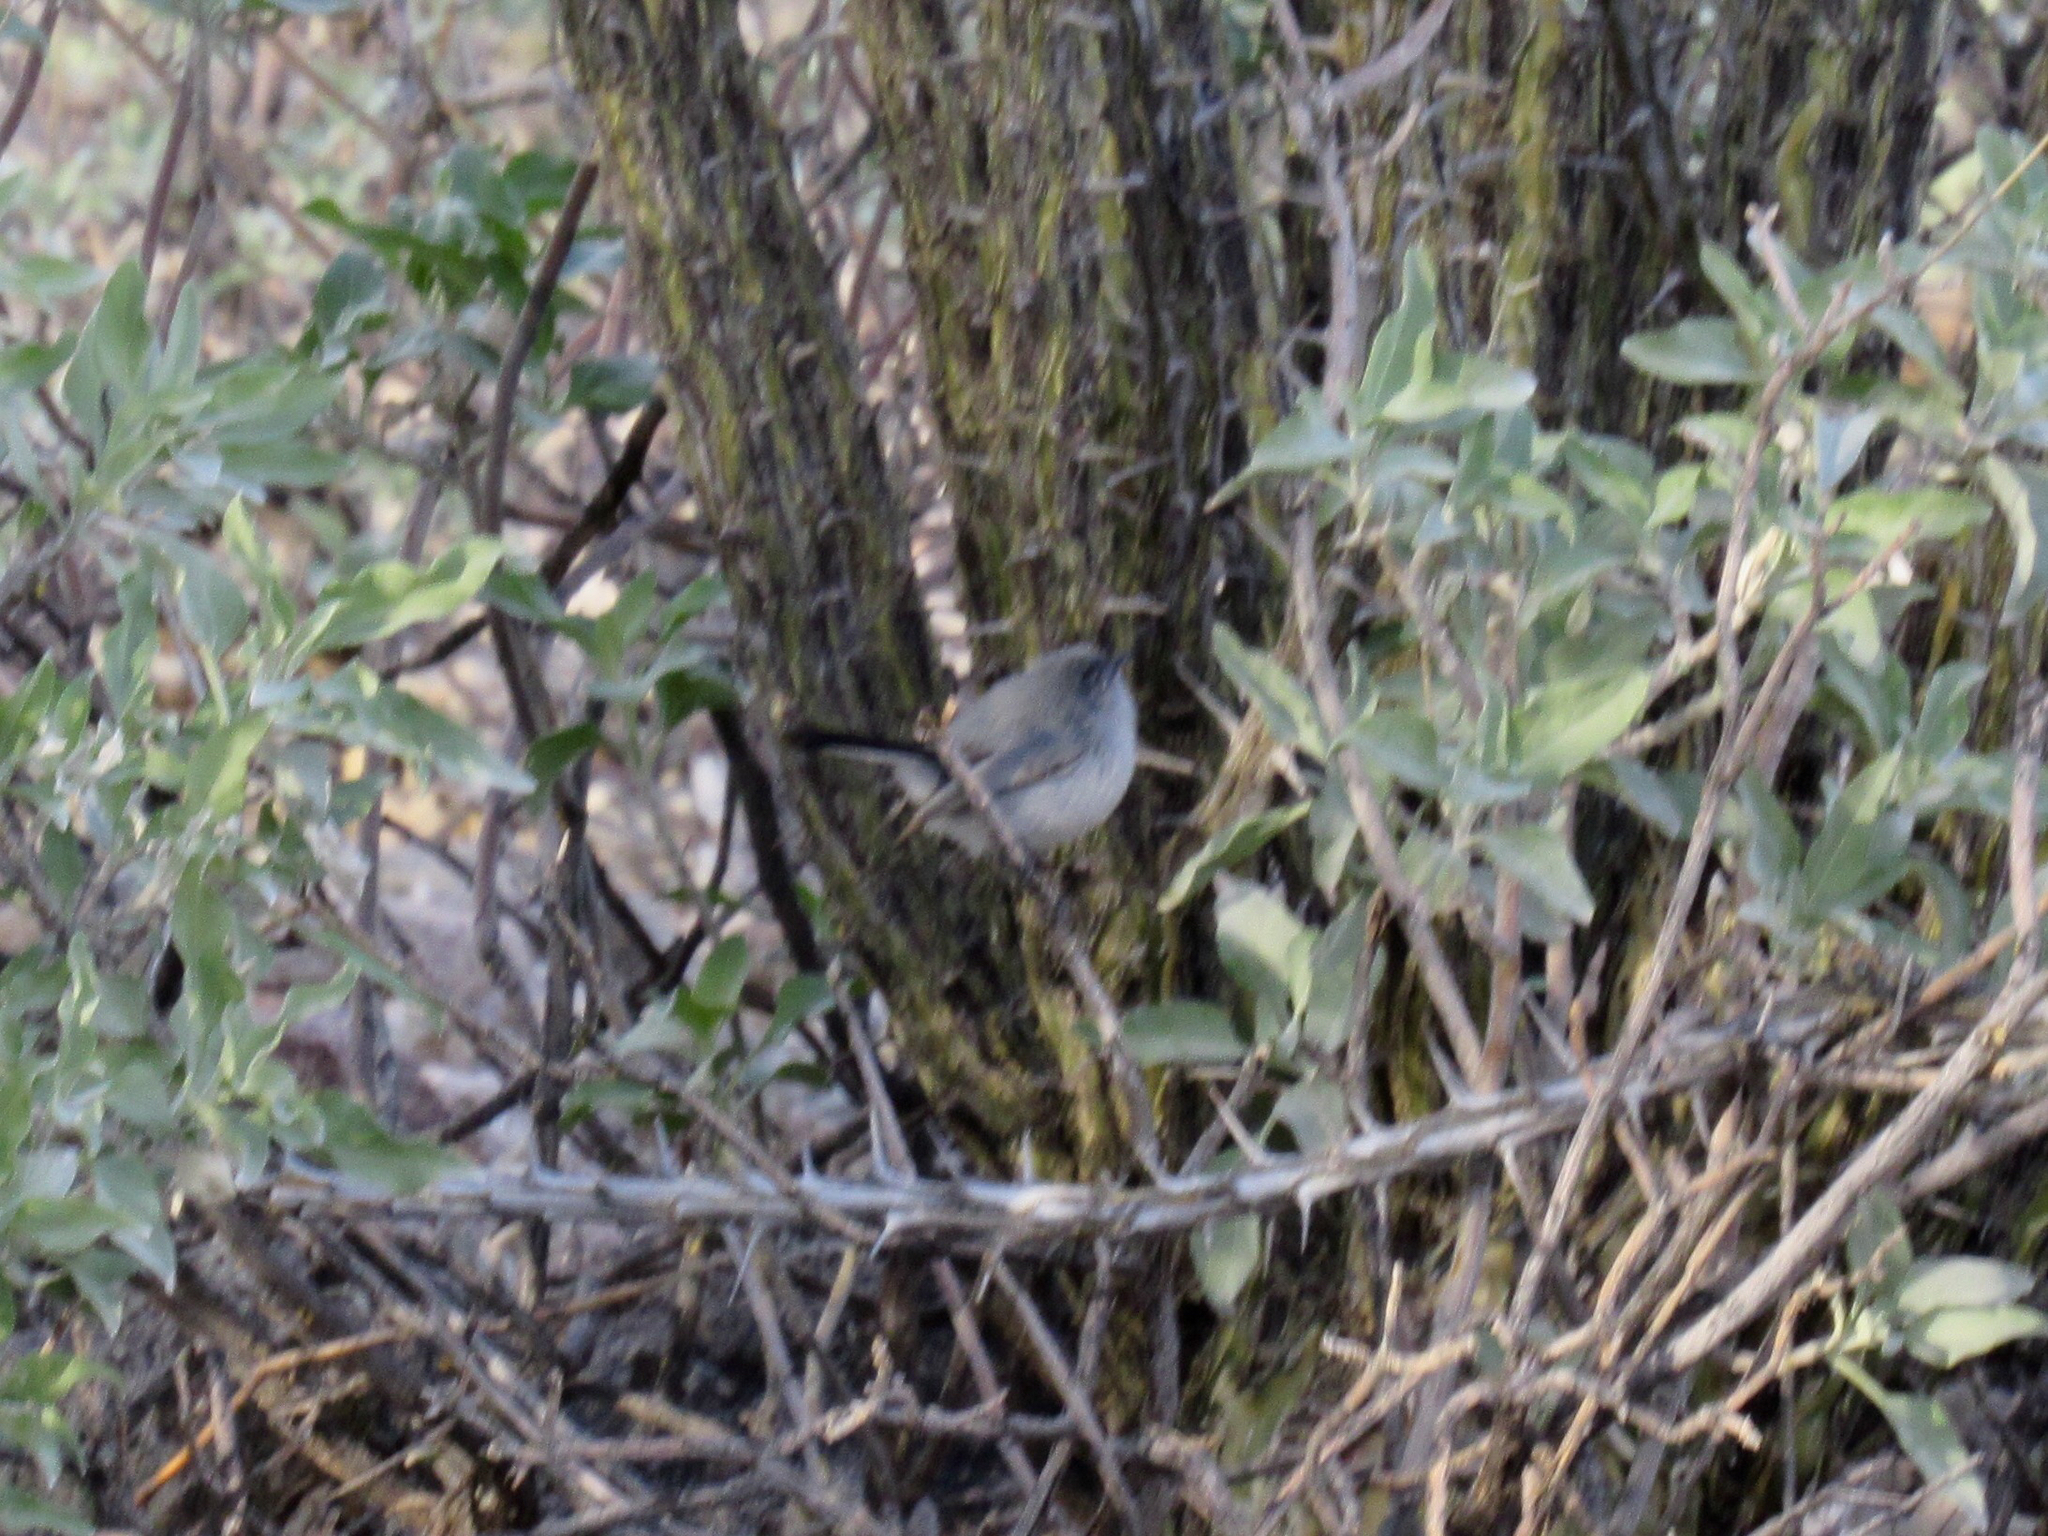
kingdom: Animalia
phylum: Chordata
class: Aves
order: Passeriformes
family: Polioptilidae
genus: Polioptila
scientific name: Polioptila caerulea
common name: Blue-gray gnatcatcher
